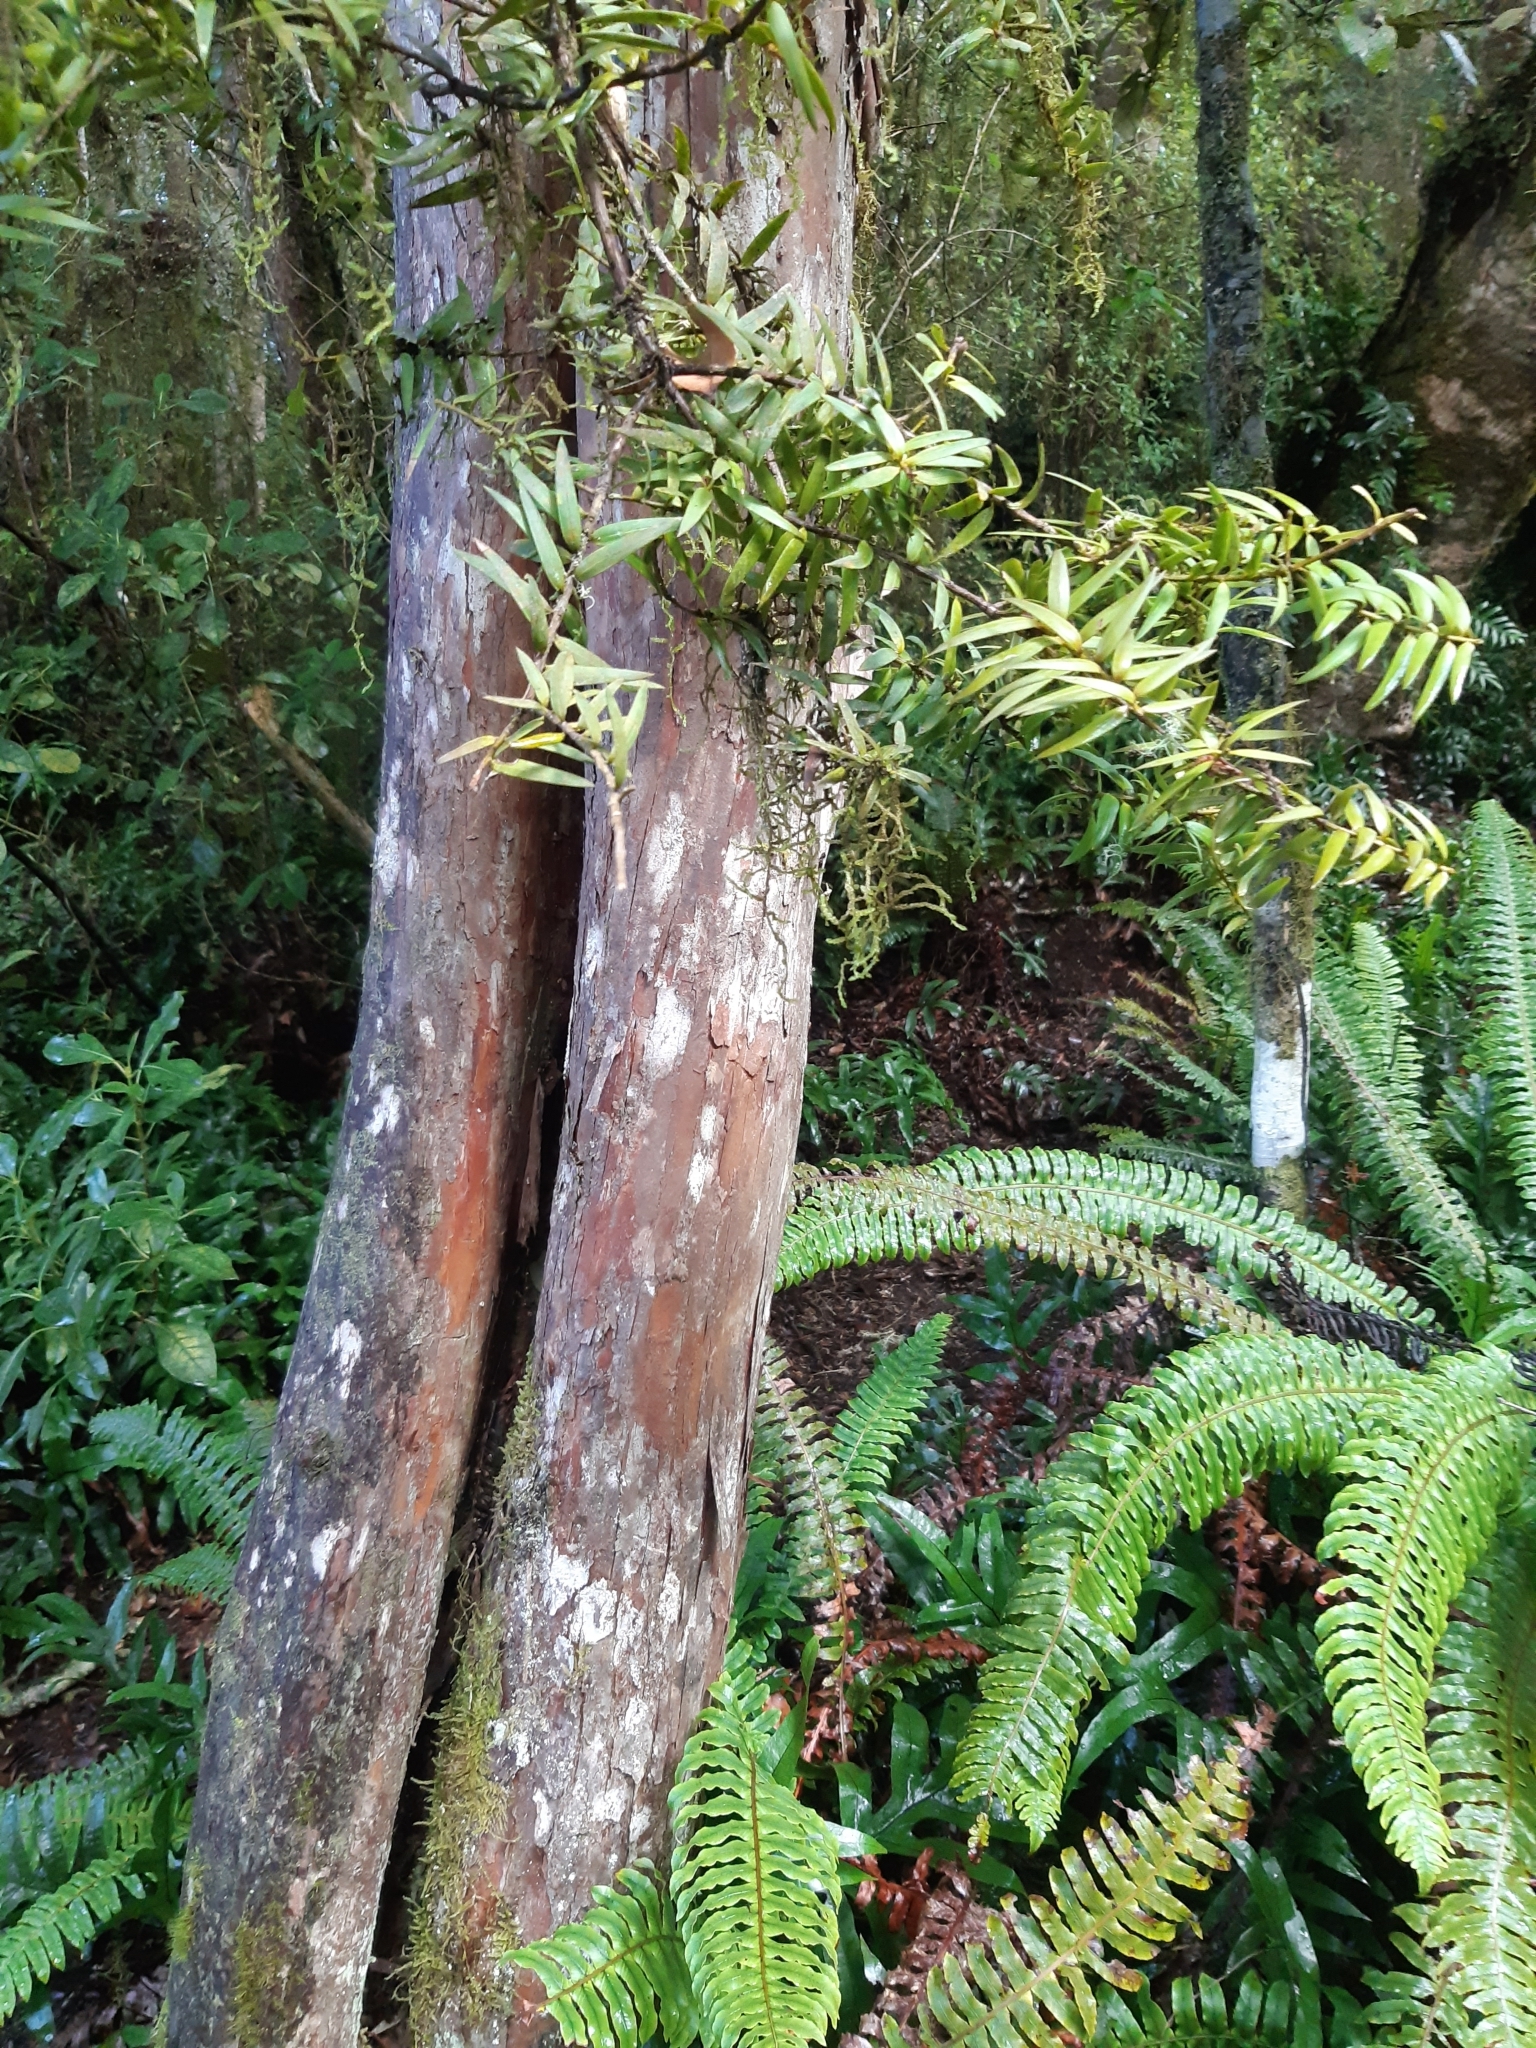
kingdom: Plantae
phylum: Tracheophyta
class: Pinopsida
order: Pinales
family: Podocarpaceae
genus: Podocarpus
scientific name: Podocarpus laetus
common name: Hall's totara
